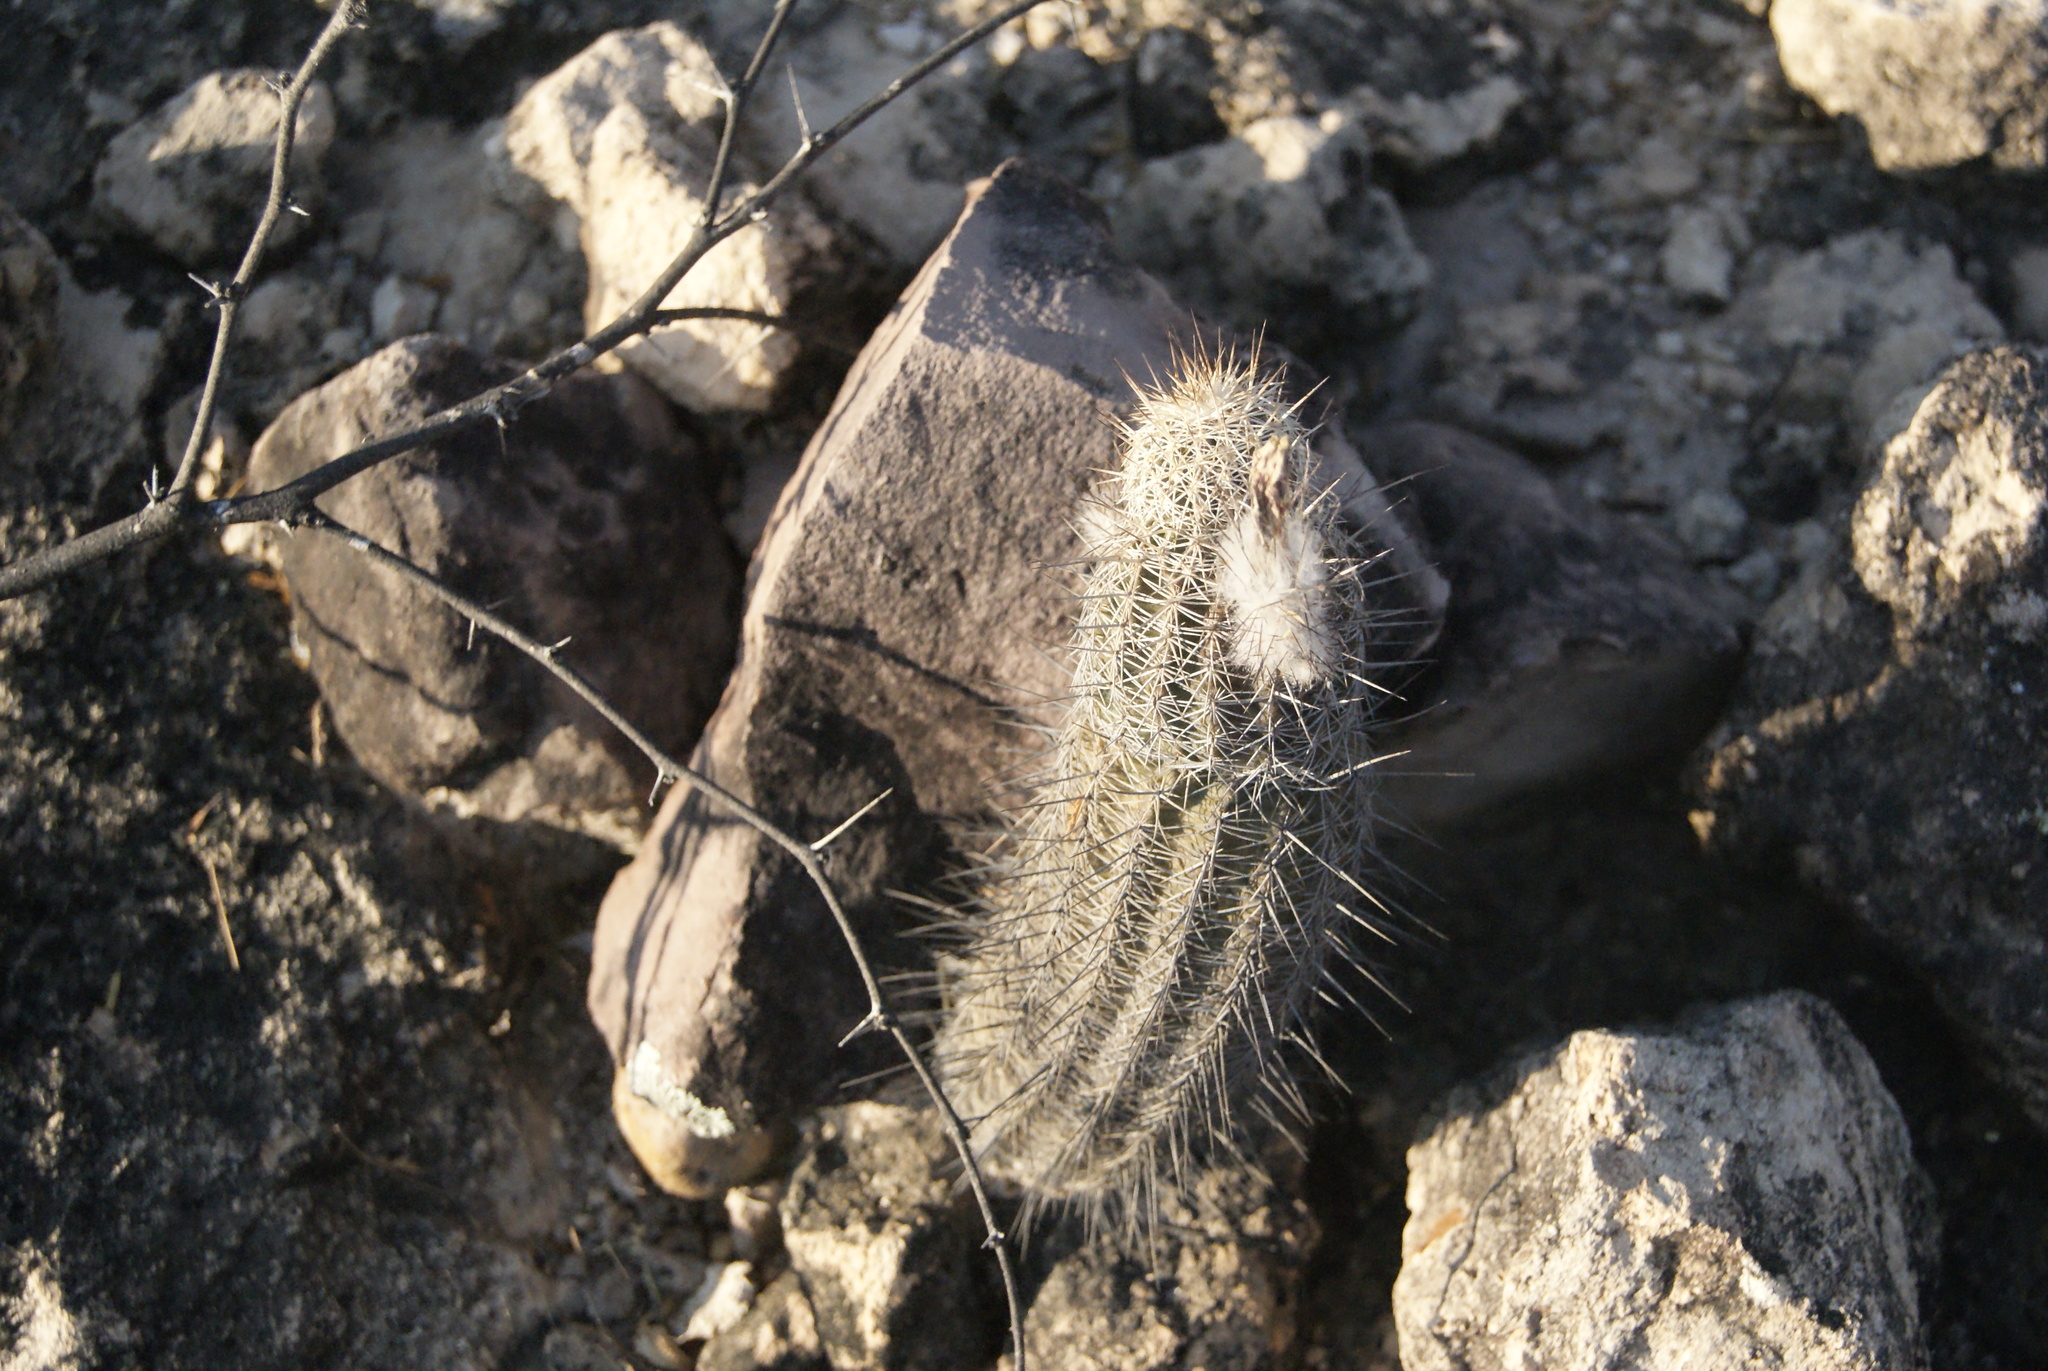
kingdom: Plantae
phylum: Tracheophyta
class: Magnoliopsida
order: Caryophyllales
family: Cactaceae
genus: Echinocereus
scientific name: Echinocereus pamanesii
